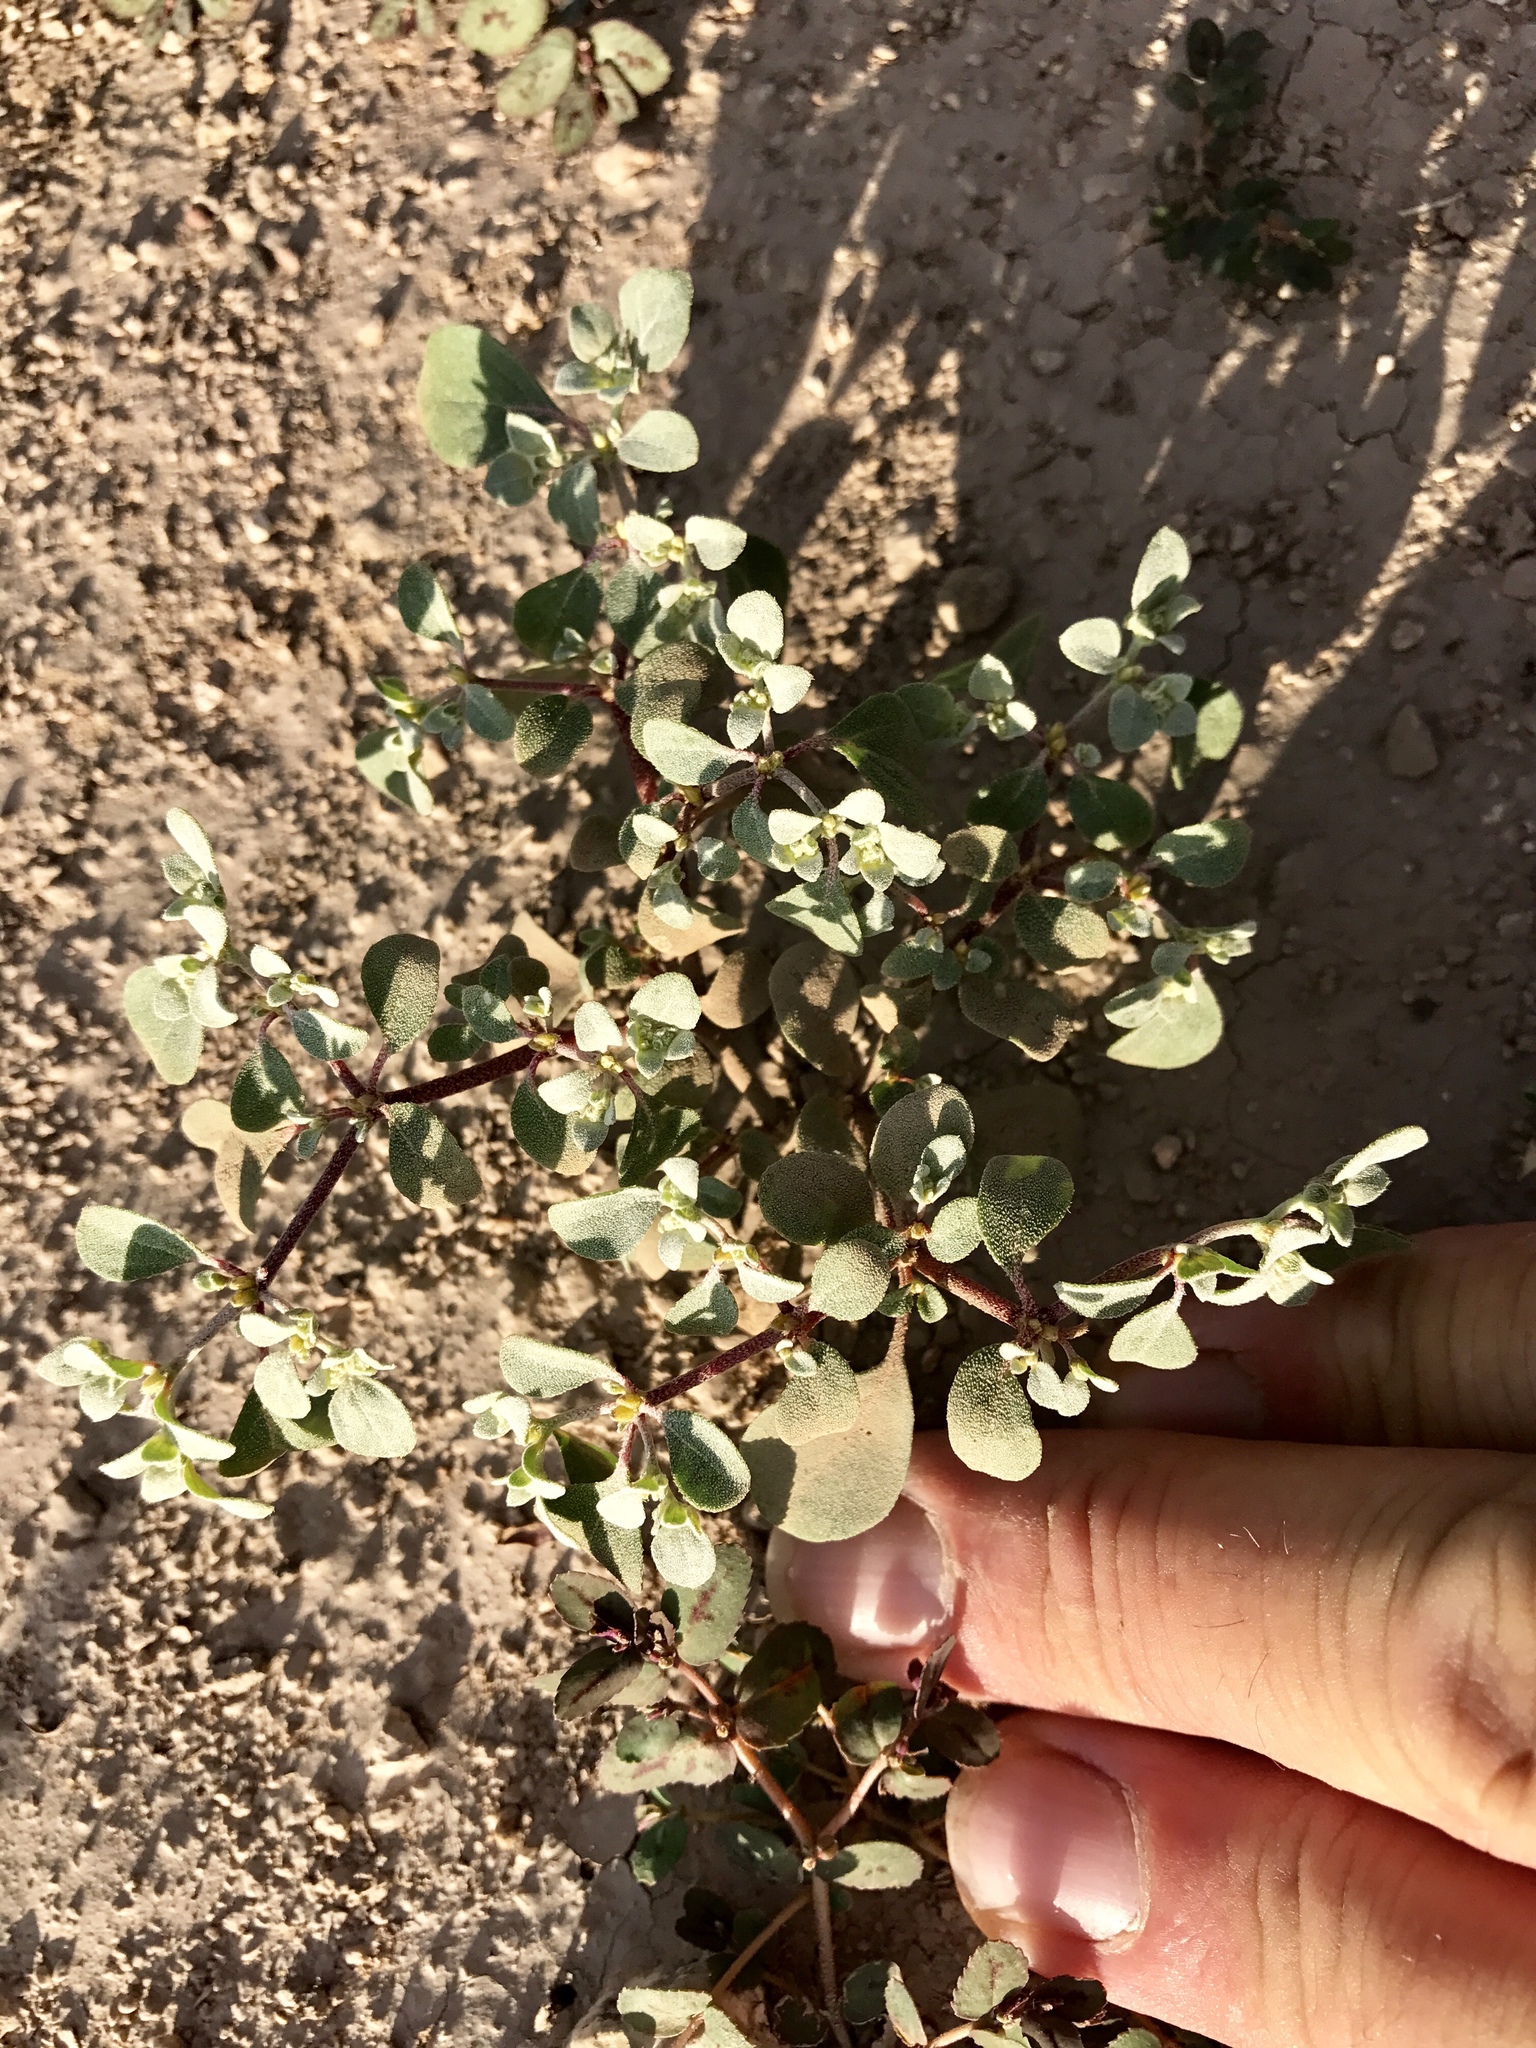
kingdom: Plantae
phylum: Tracheophyta
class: Magnoliopsida
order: Caryophyllales
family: Amaranthaceae
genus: Tidestromia
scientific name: Tidestromia lanuginosa
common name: Woolly tidestromia
